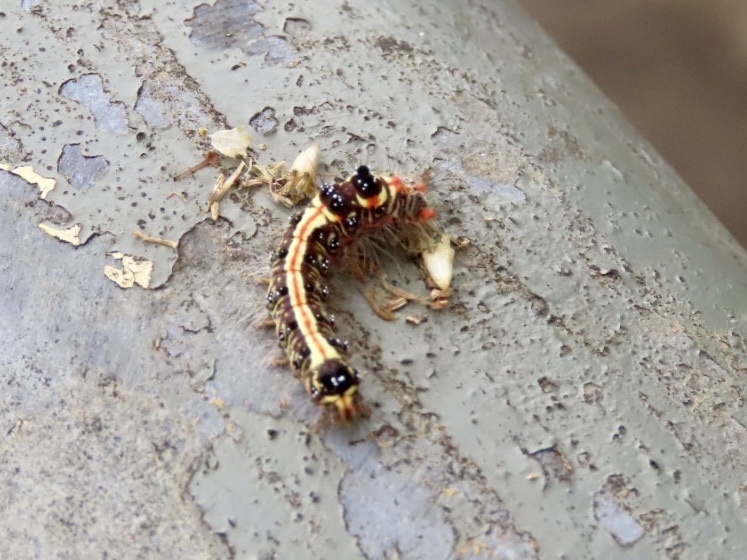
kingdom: Animalia
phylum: Arthropoda
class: Insecta
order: Lepidoptera
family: Erebidae
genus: Orvasca
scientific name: Orvasca subnotata
